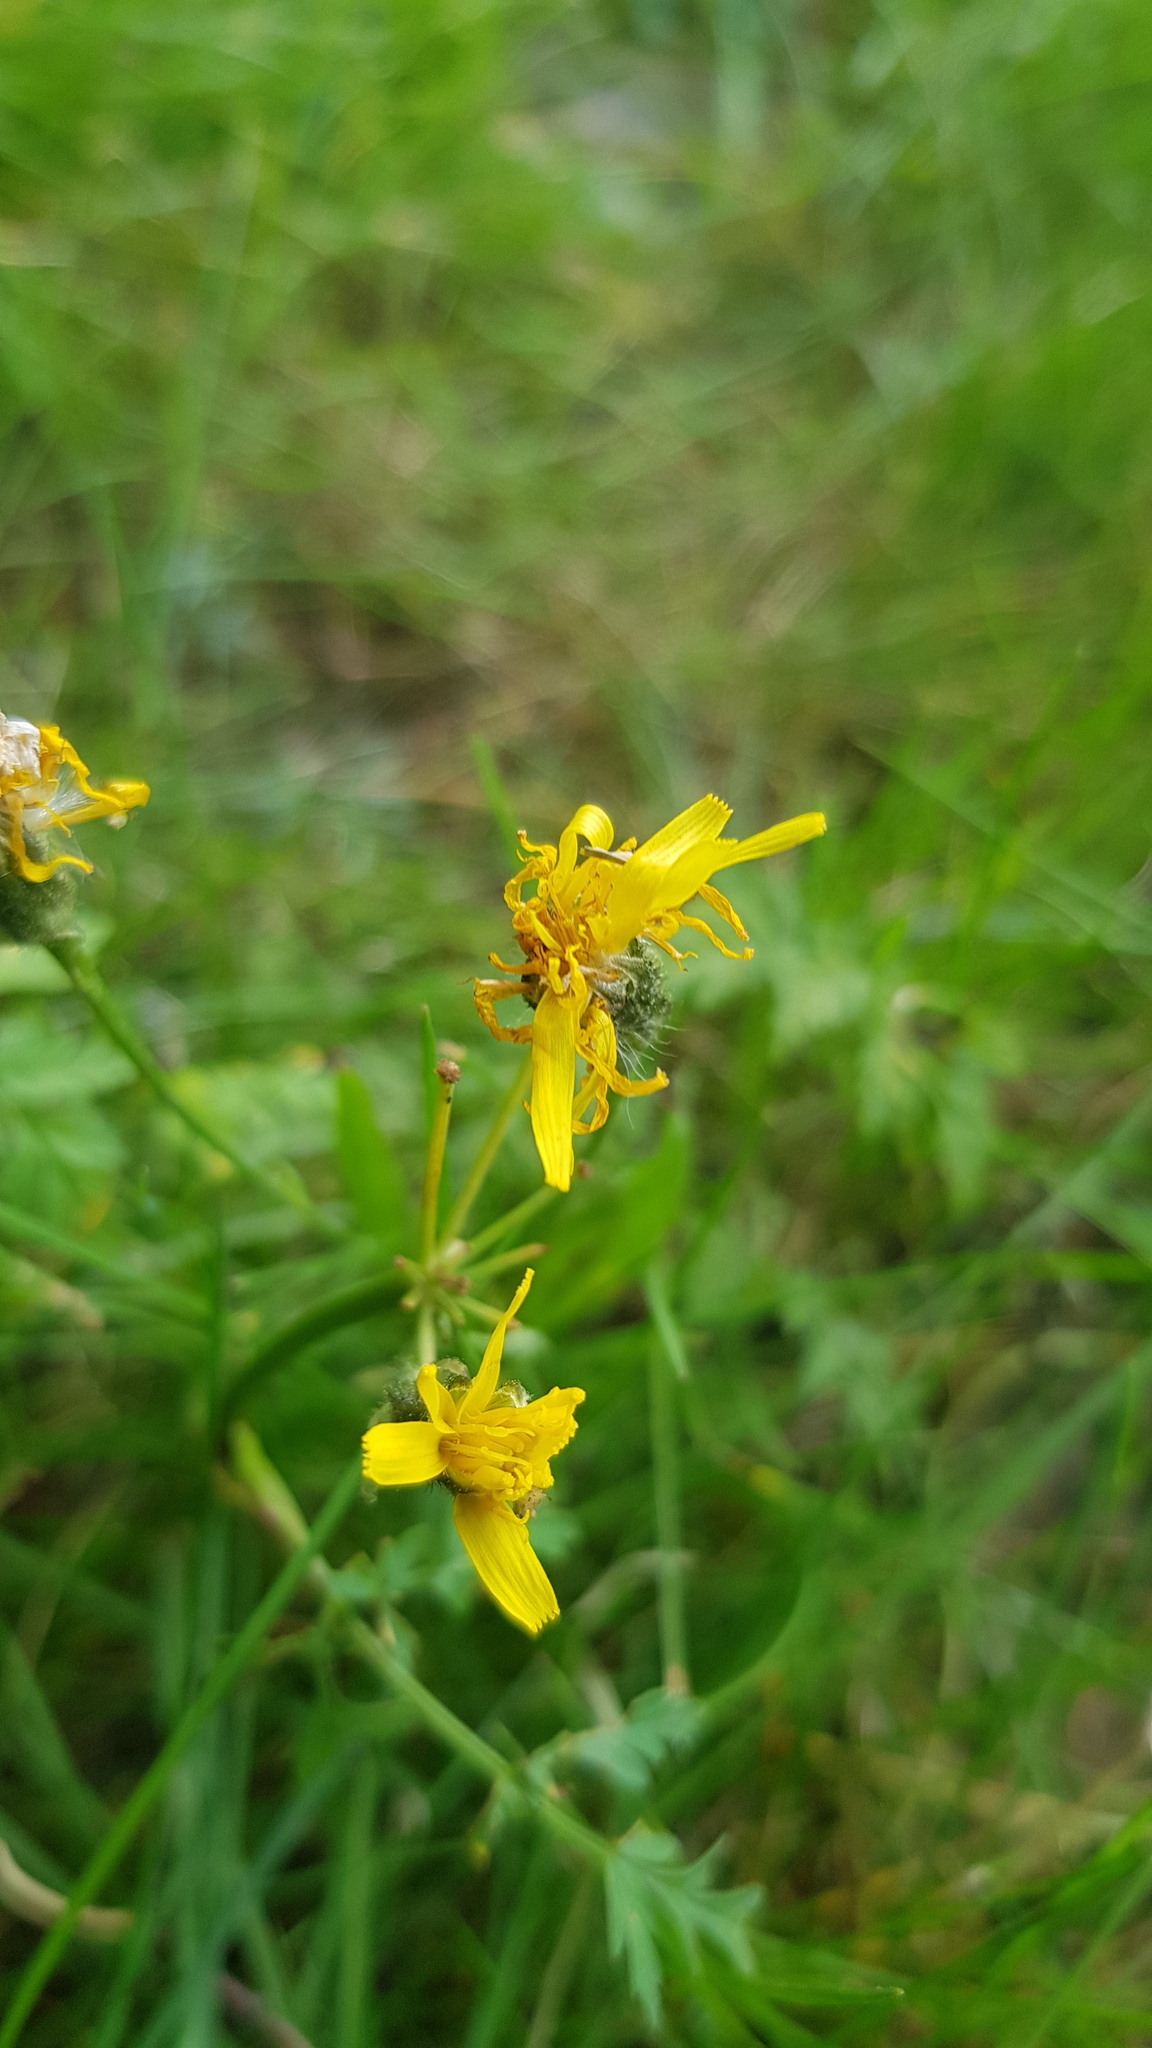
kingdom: Plantae
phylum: Tracheophyta
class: Magnoliopsida
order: Asterales
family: Asteraceae
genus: Ligularia
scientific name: Ligularia sibirica
